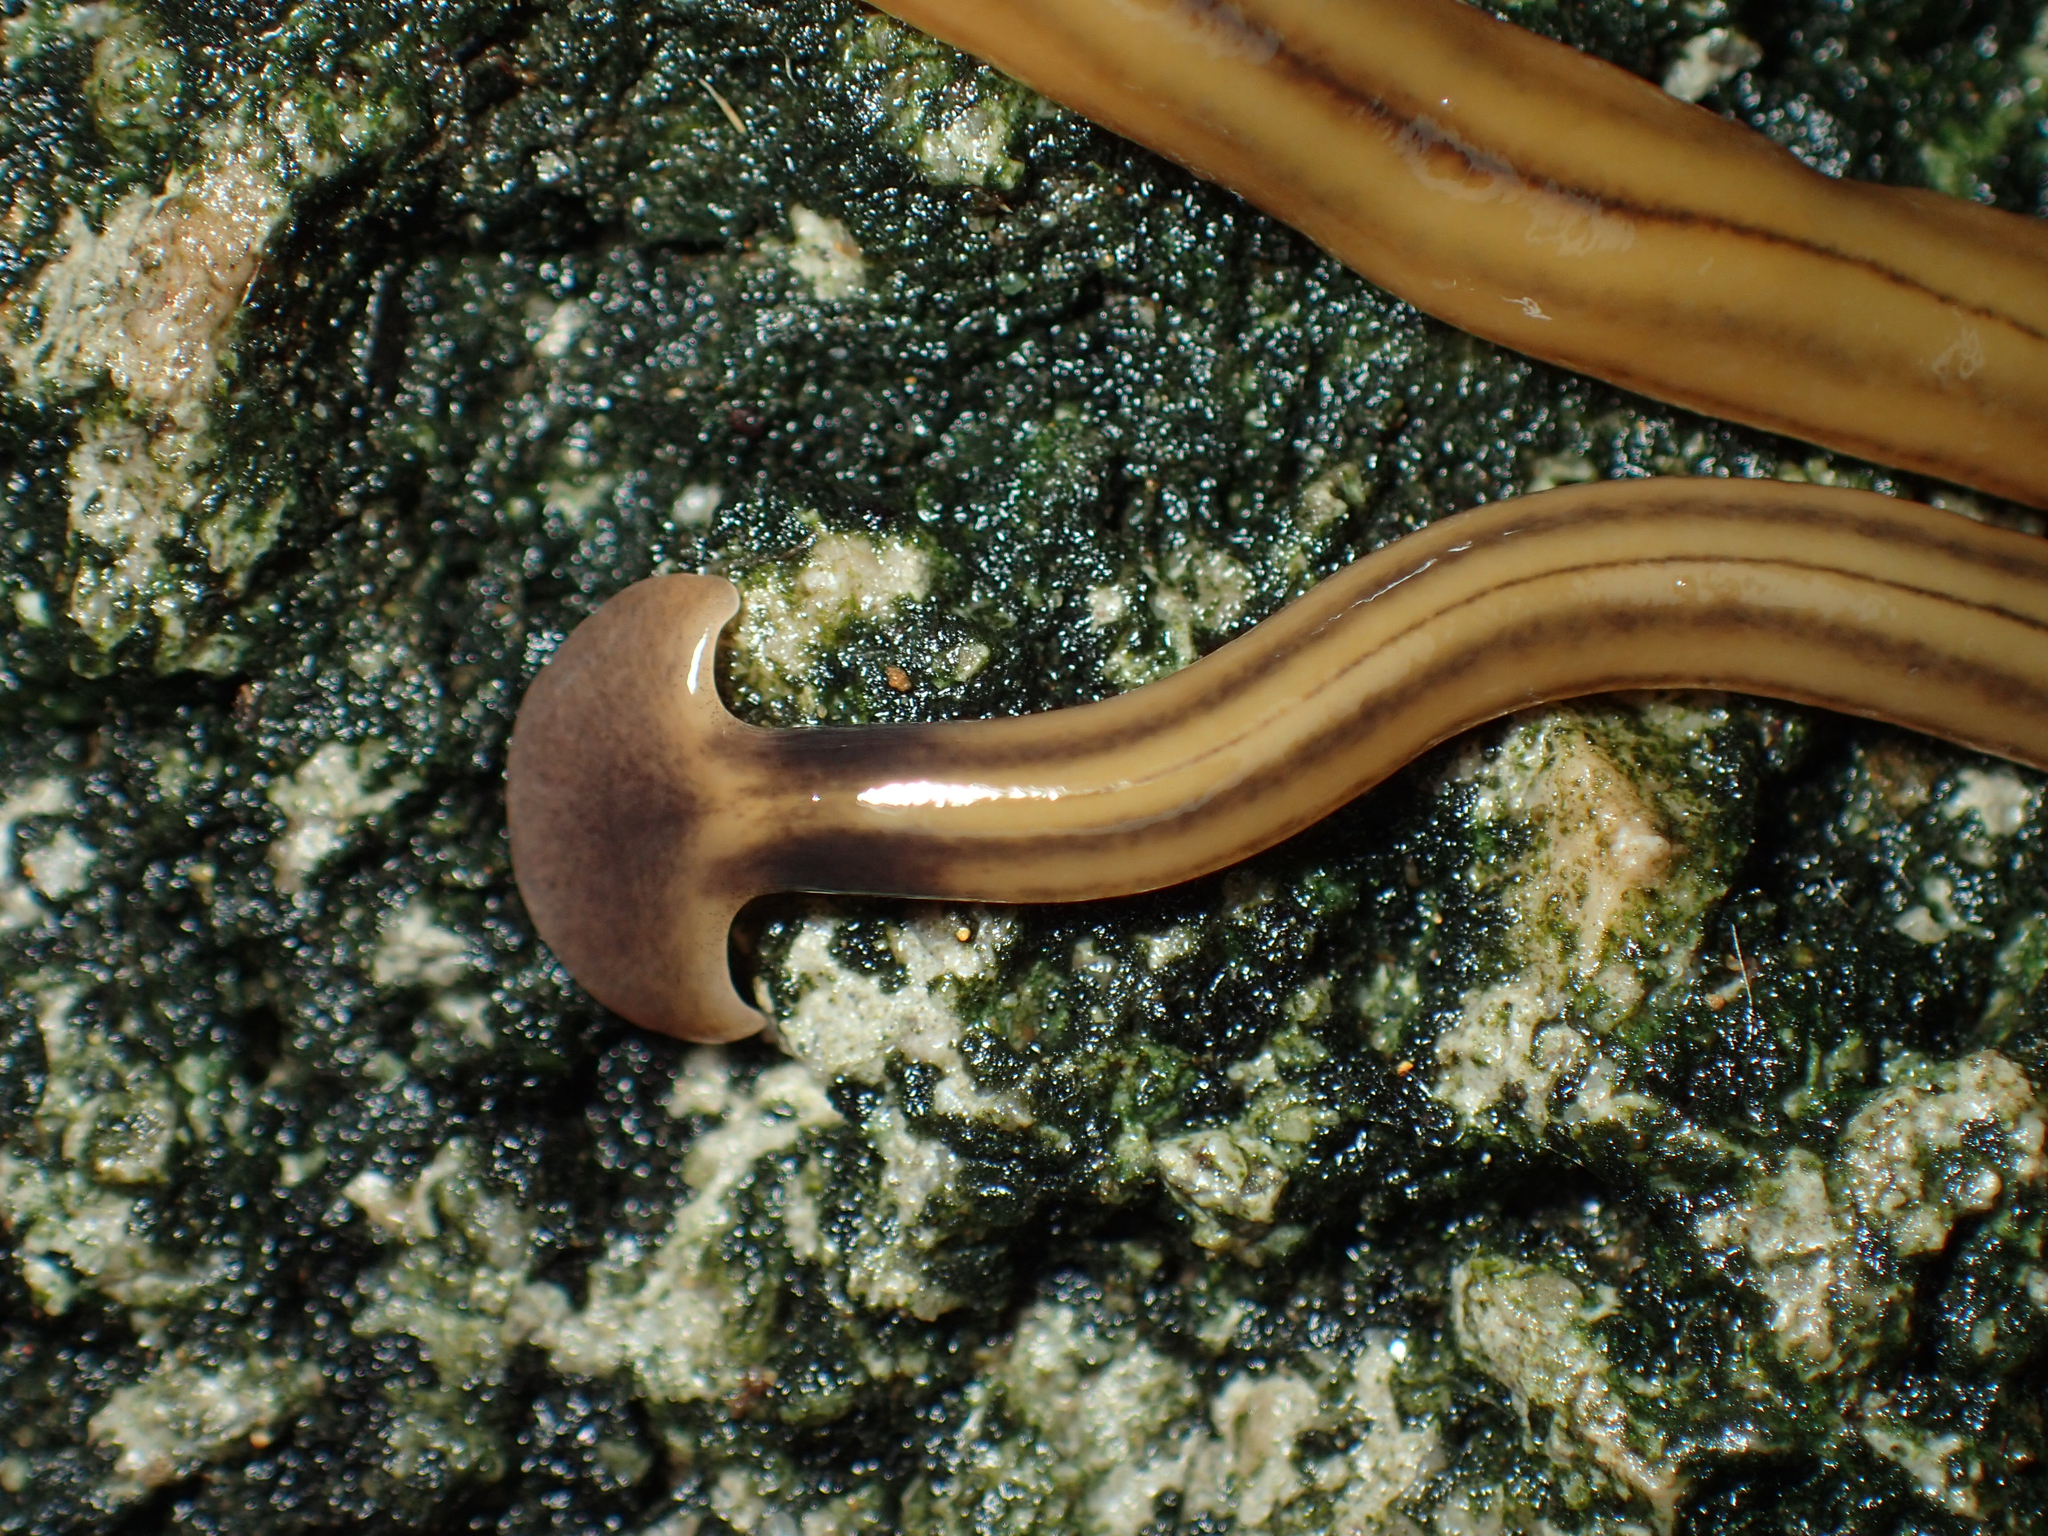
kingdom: Animalia
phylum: Platyhelminthes
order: Tricladida
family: Geoplanidae
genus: Bipalium
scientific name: Bipalium kewense
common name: Hammerhead flatworm
